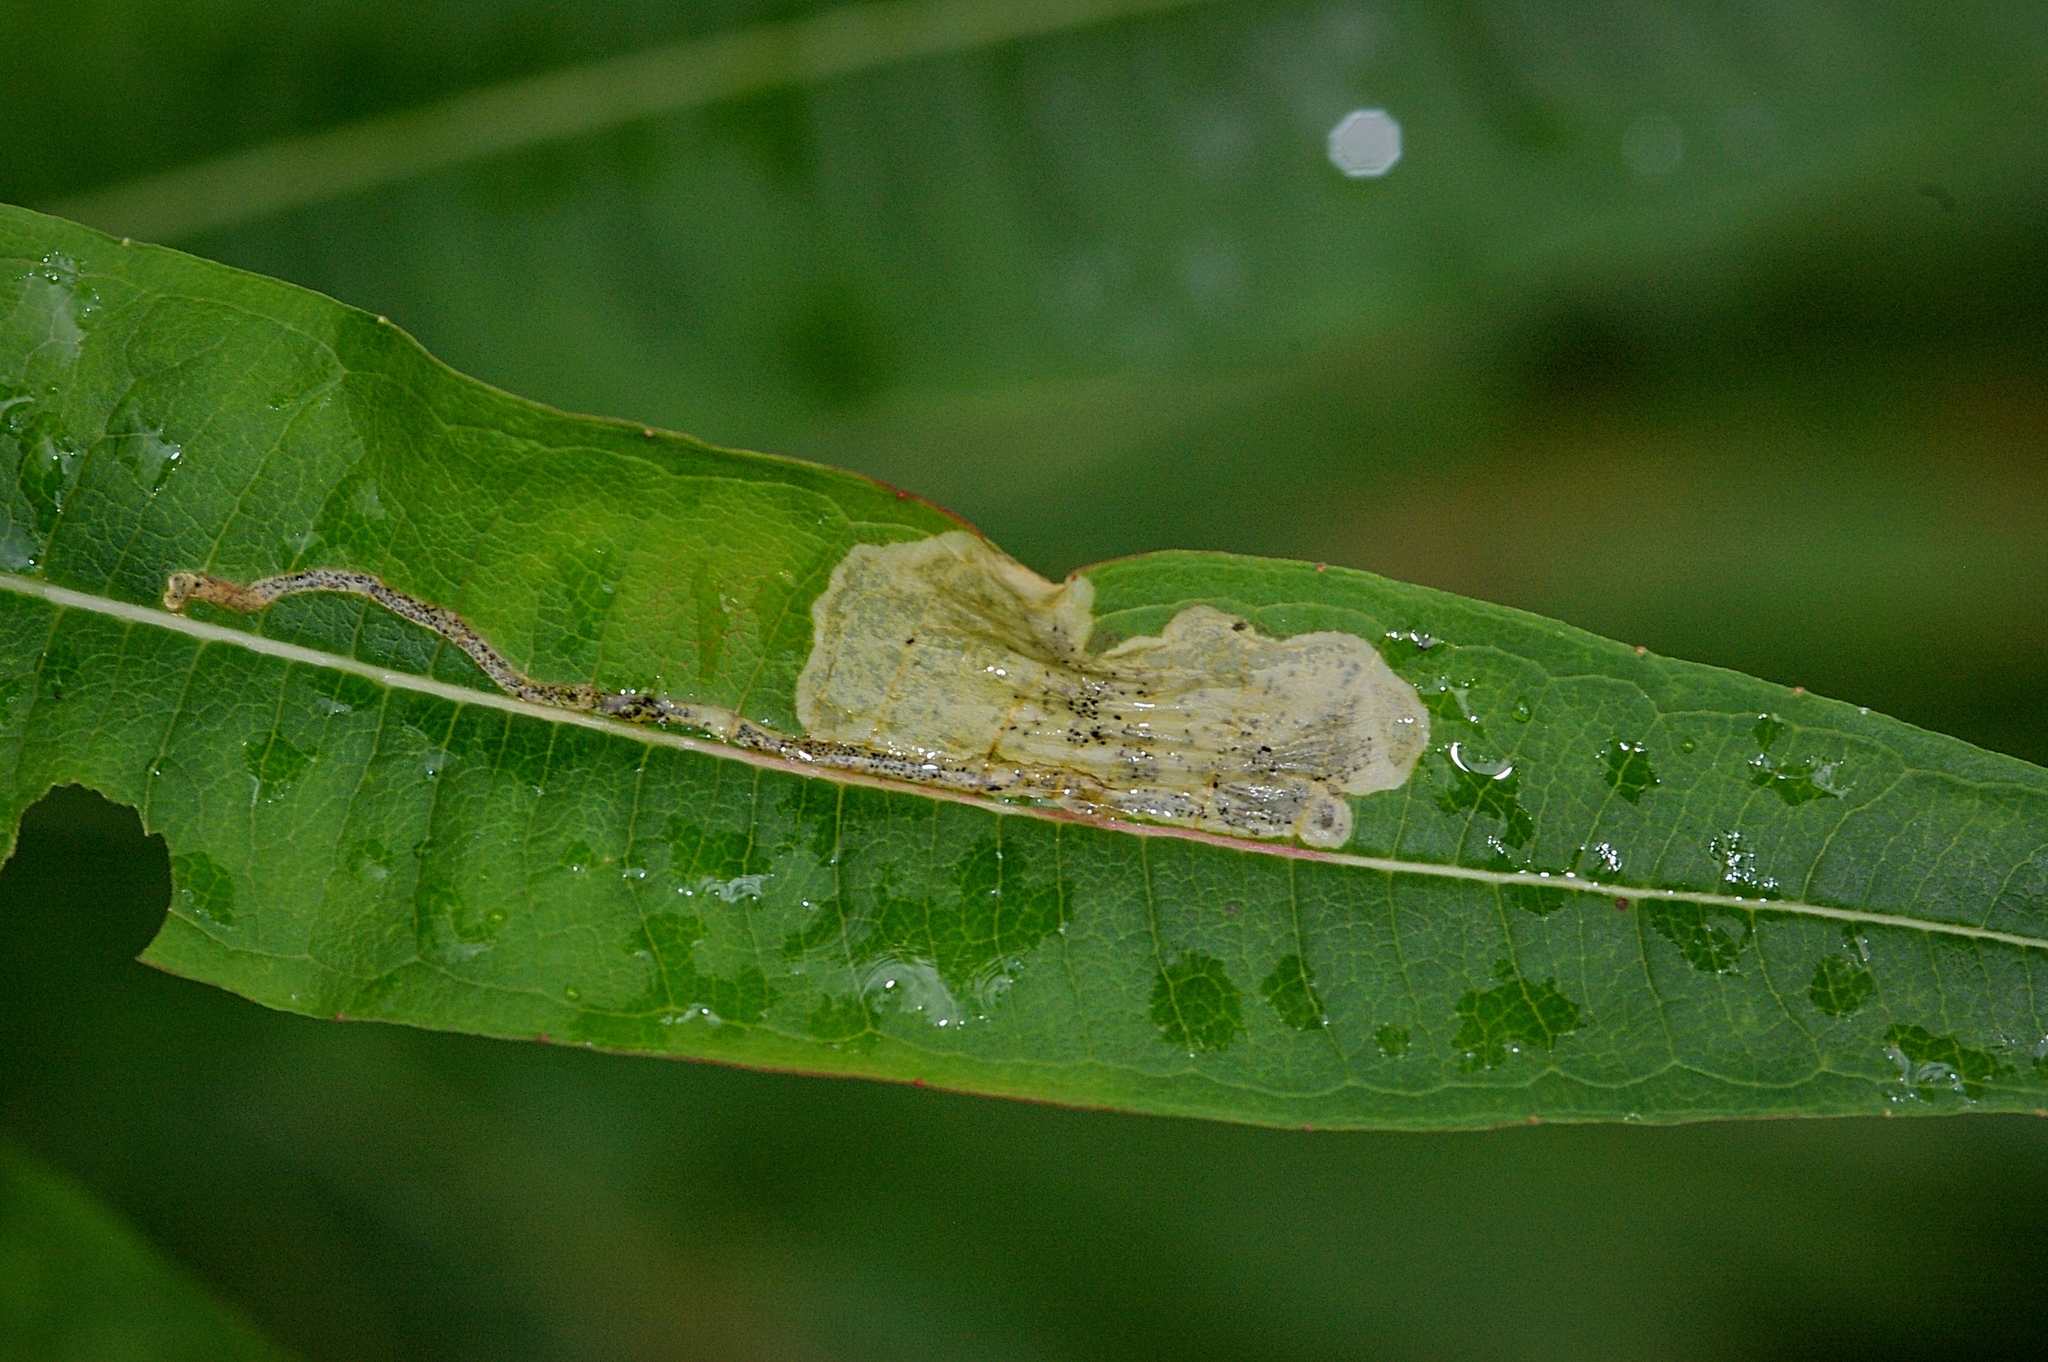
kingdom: Animalia
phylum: Arthropoda
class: Insecta
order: Lepidoptera
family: Momphidae
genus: Mompha
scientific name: Mompha raschkiella
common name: Little cosmet
